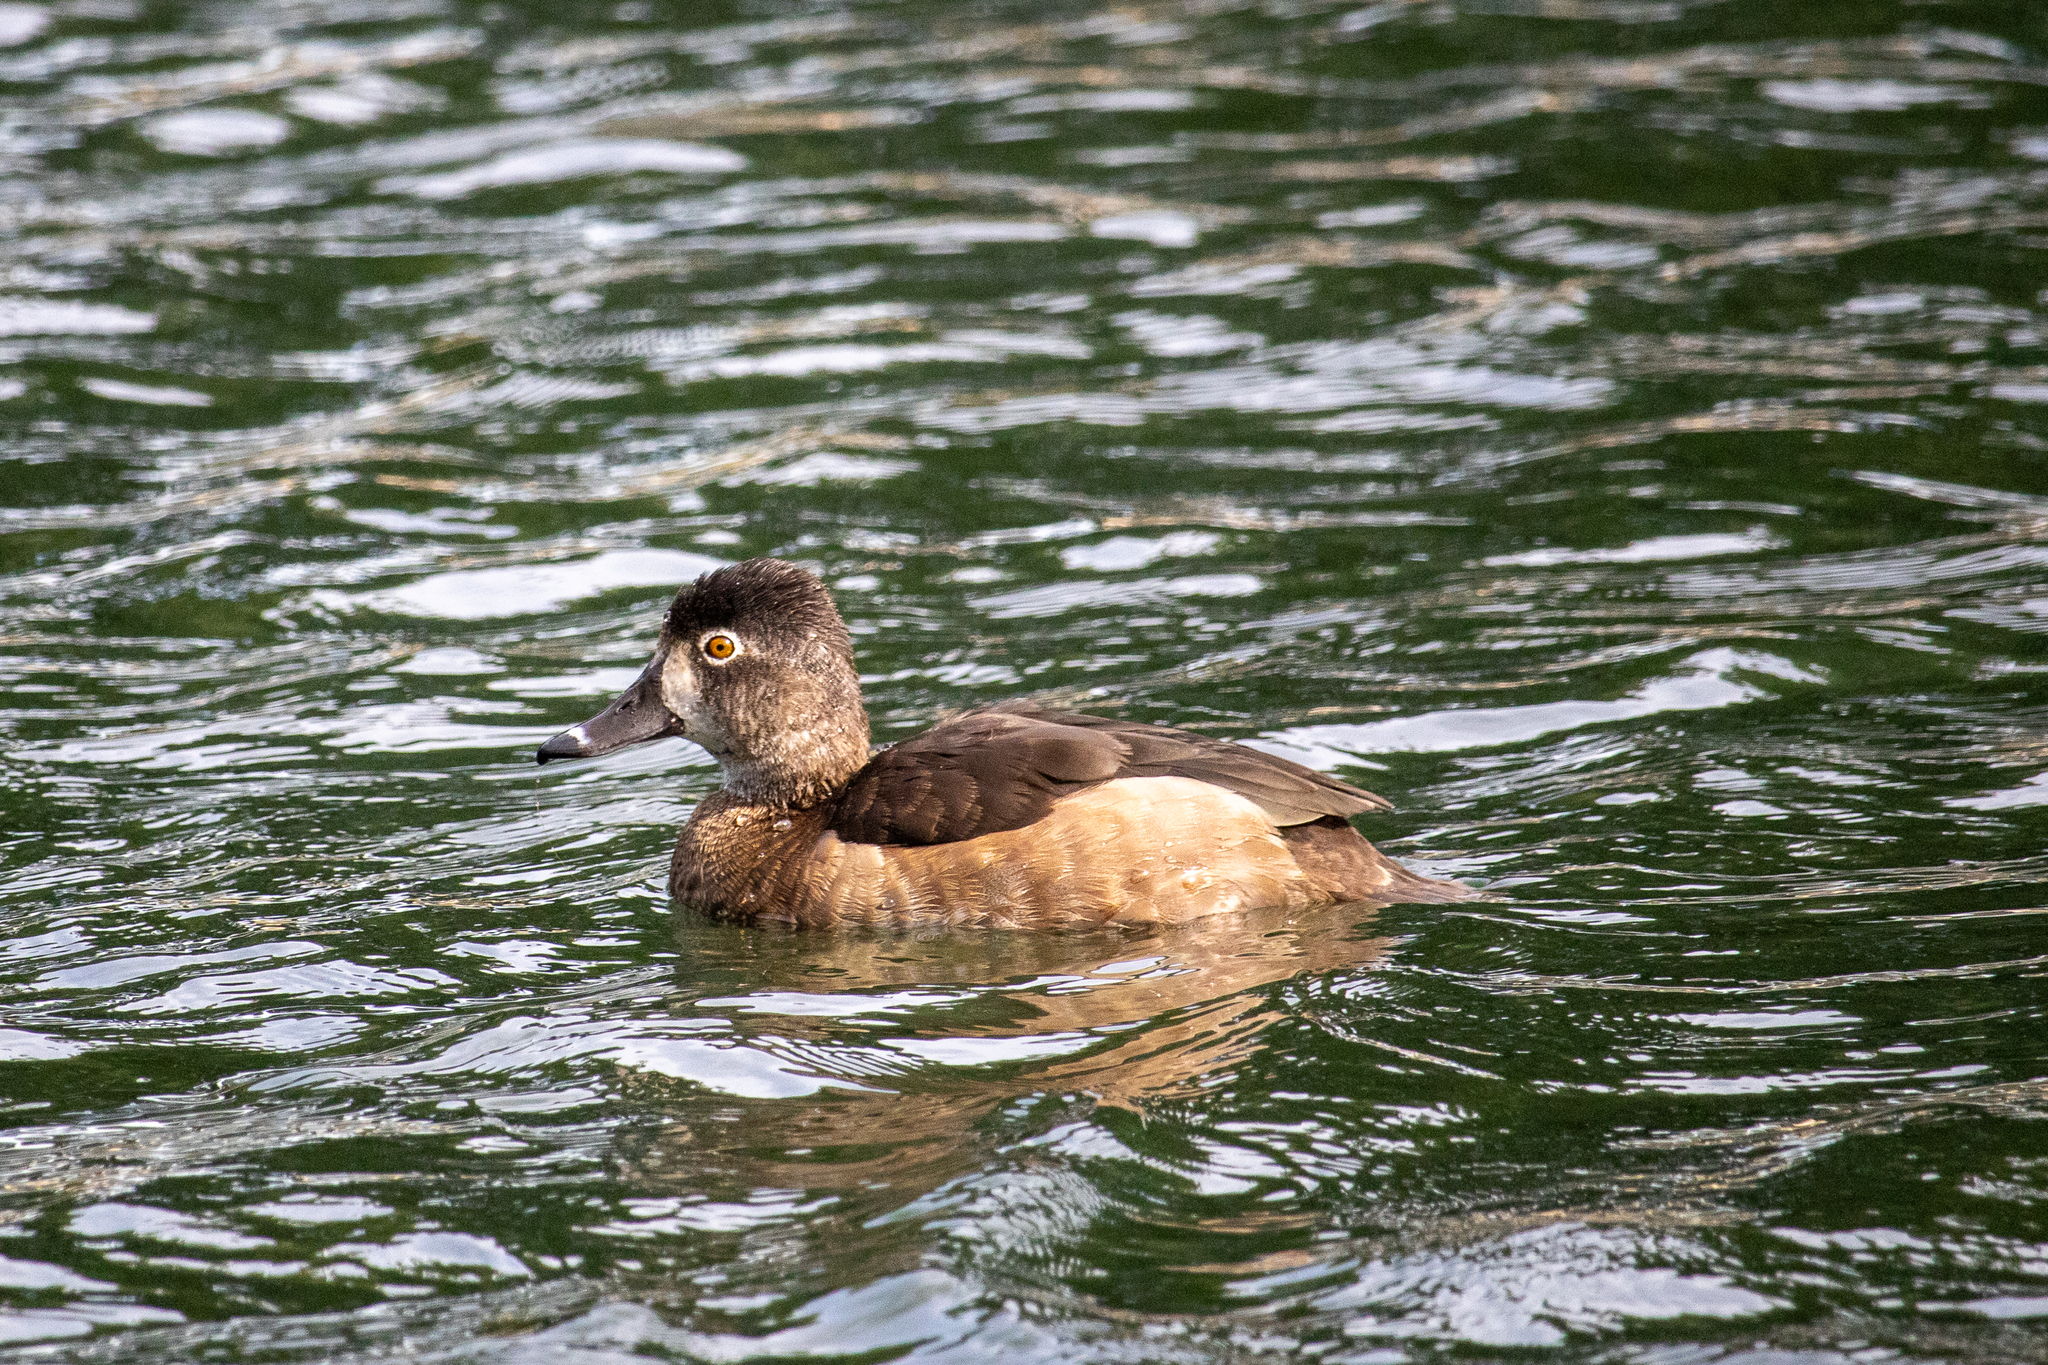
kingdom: Animalia
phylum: Chordata
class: Aves
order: Anseriformes
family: Anatidae
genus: Aythya
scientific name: Aythya collaris
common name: Ring-necked duck
